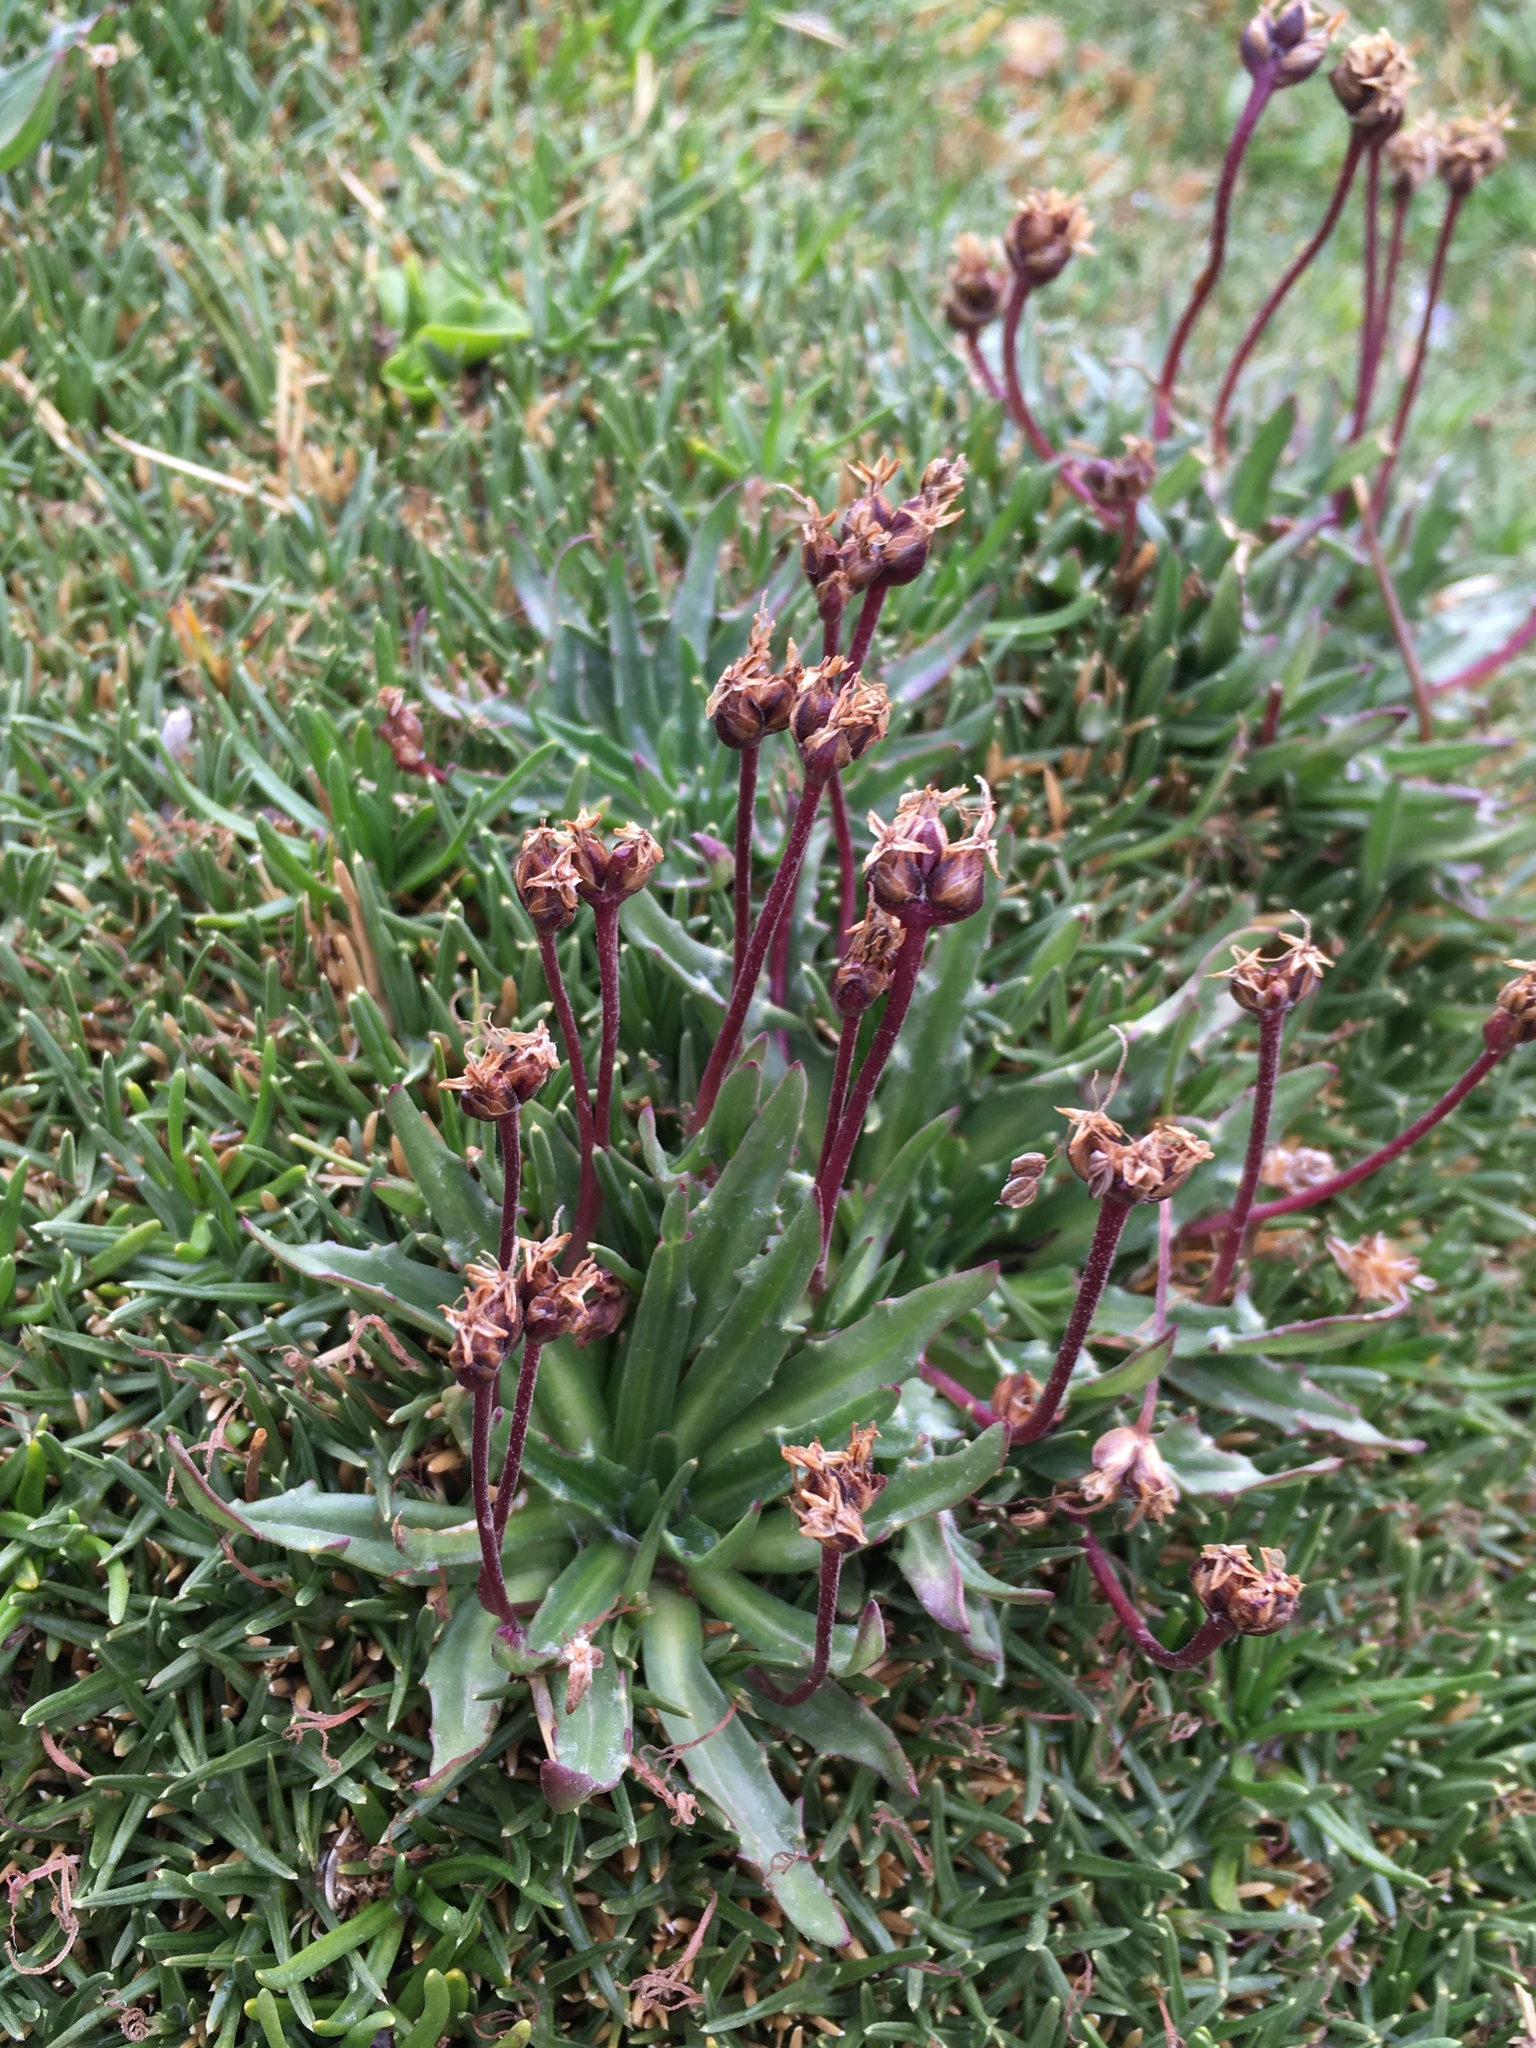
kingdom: Plantae
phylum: Tracheophyta
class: Magnoliopsida
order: Lamiales
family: Plantaginaceae
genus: Plantago
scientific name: Plantago barbata
